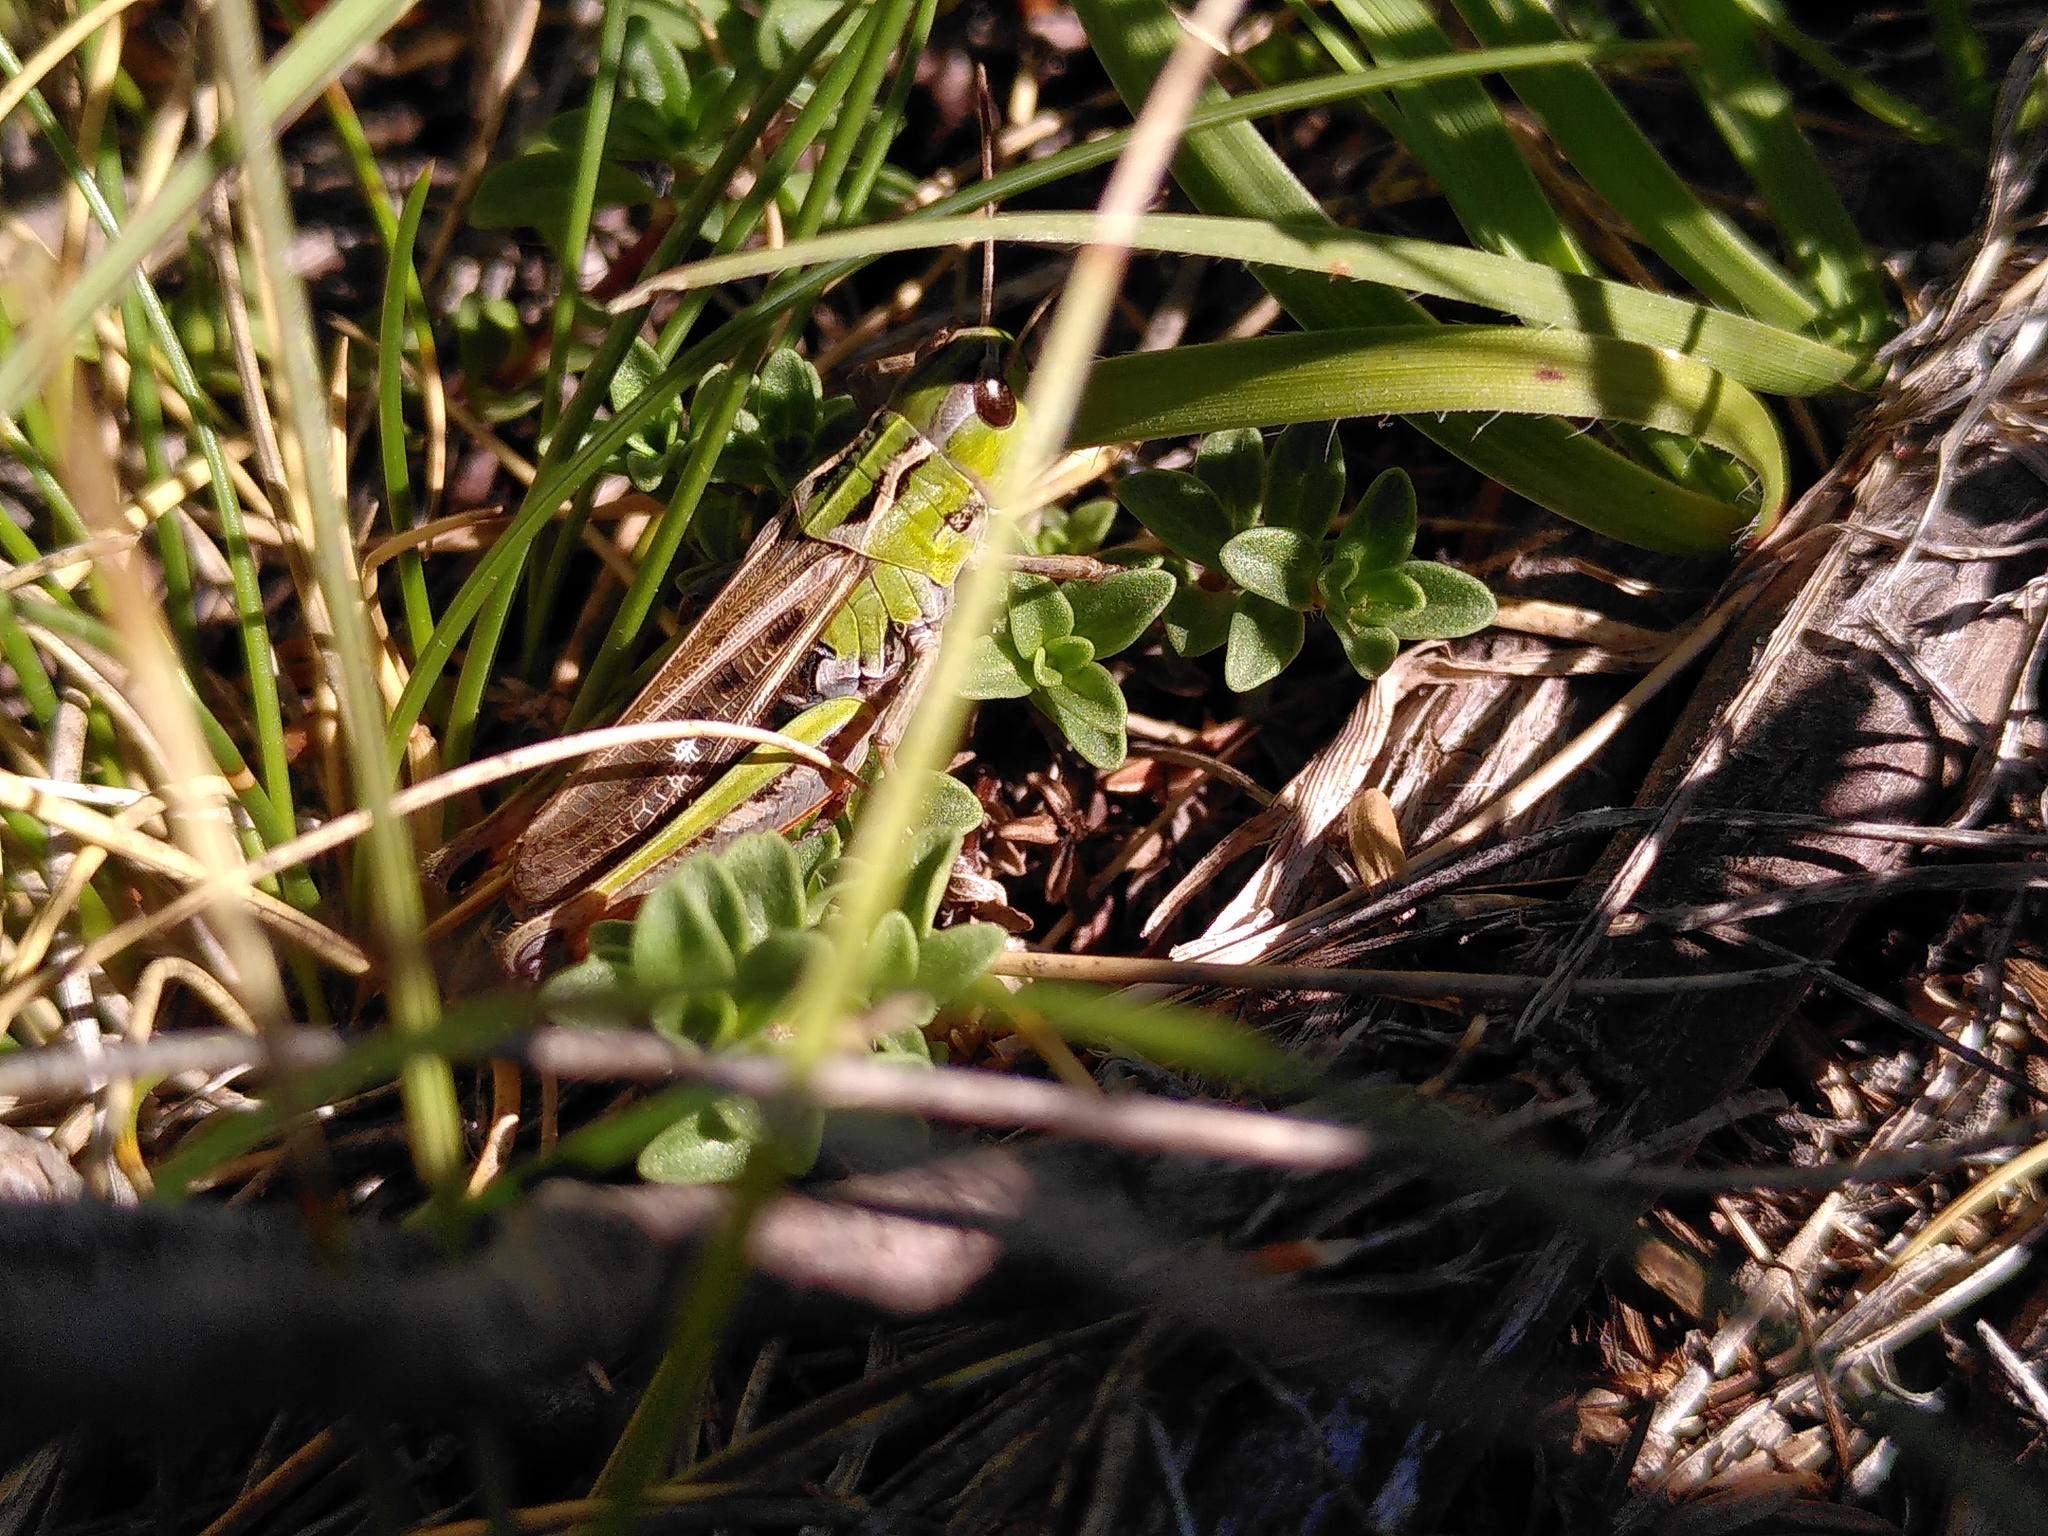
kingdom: Animalia
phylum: Arthropoda
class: Insecta
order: Orthoptera
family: Acrididae
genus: Stenobothrus
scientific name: Stenobothrus rubicundulus
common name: Wing-buzzing grasshopper
